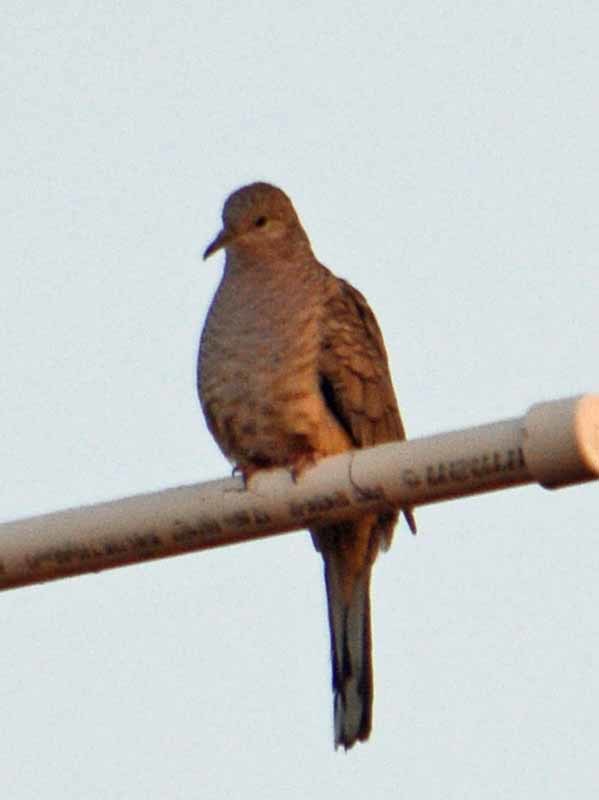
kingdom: Animalia
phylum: Chordata
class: Aves
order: Columbiformes
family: Columbidae
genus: Columbina
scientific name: Columbina inca
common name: Inca dove
